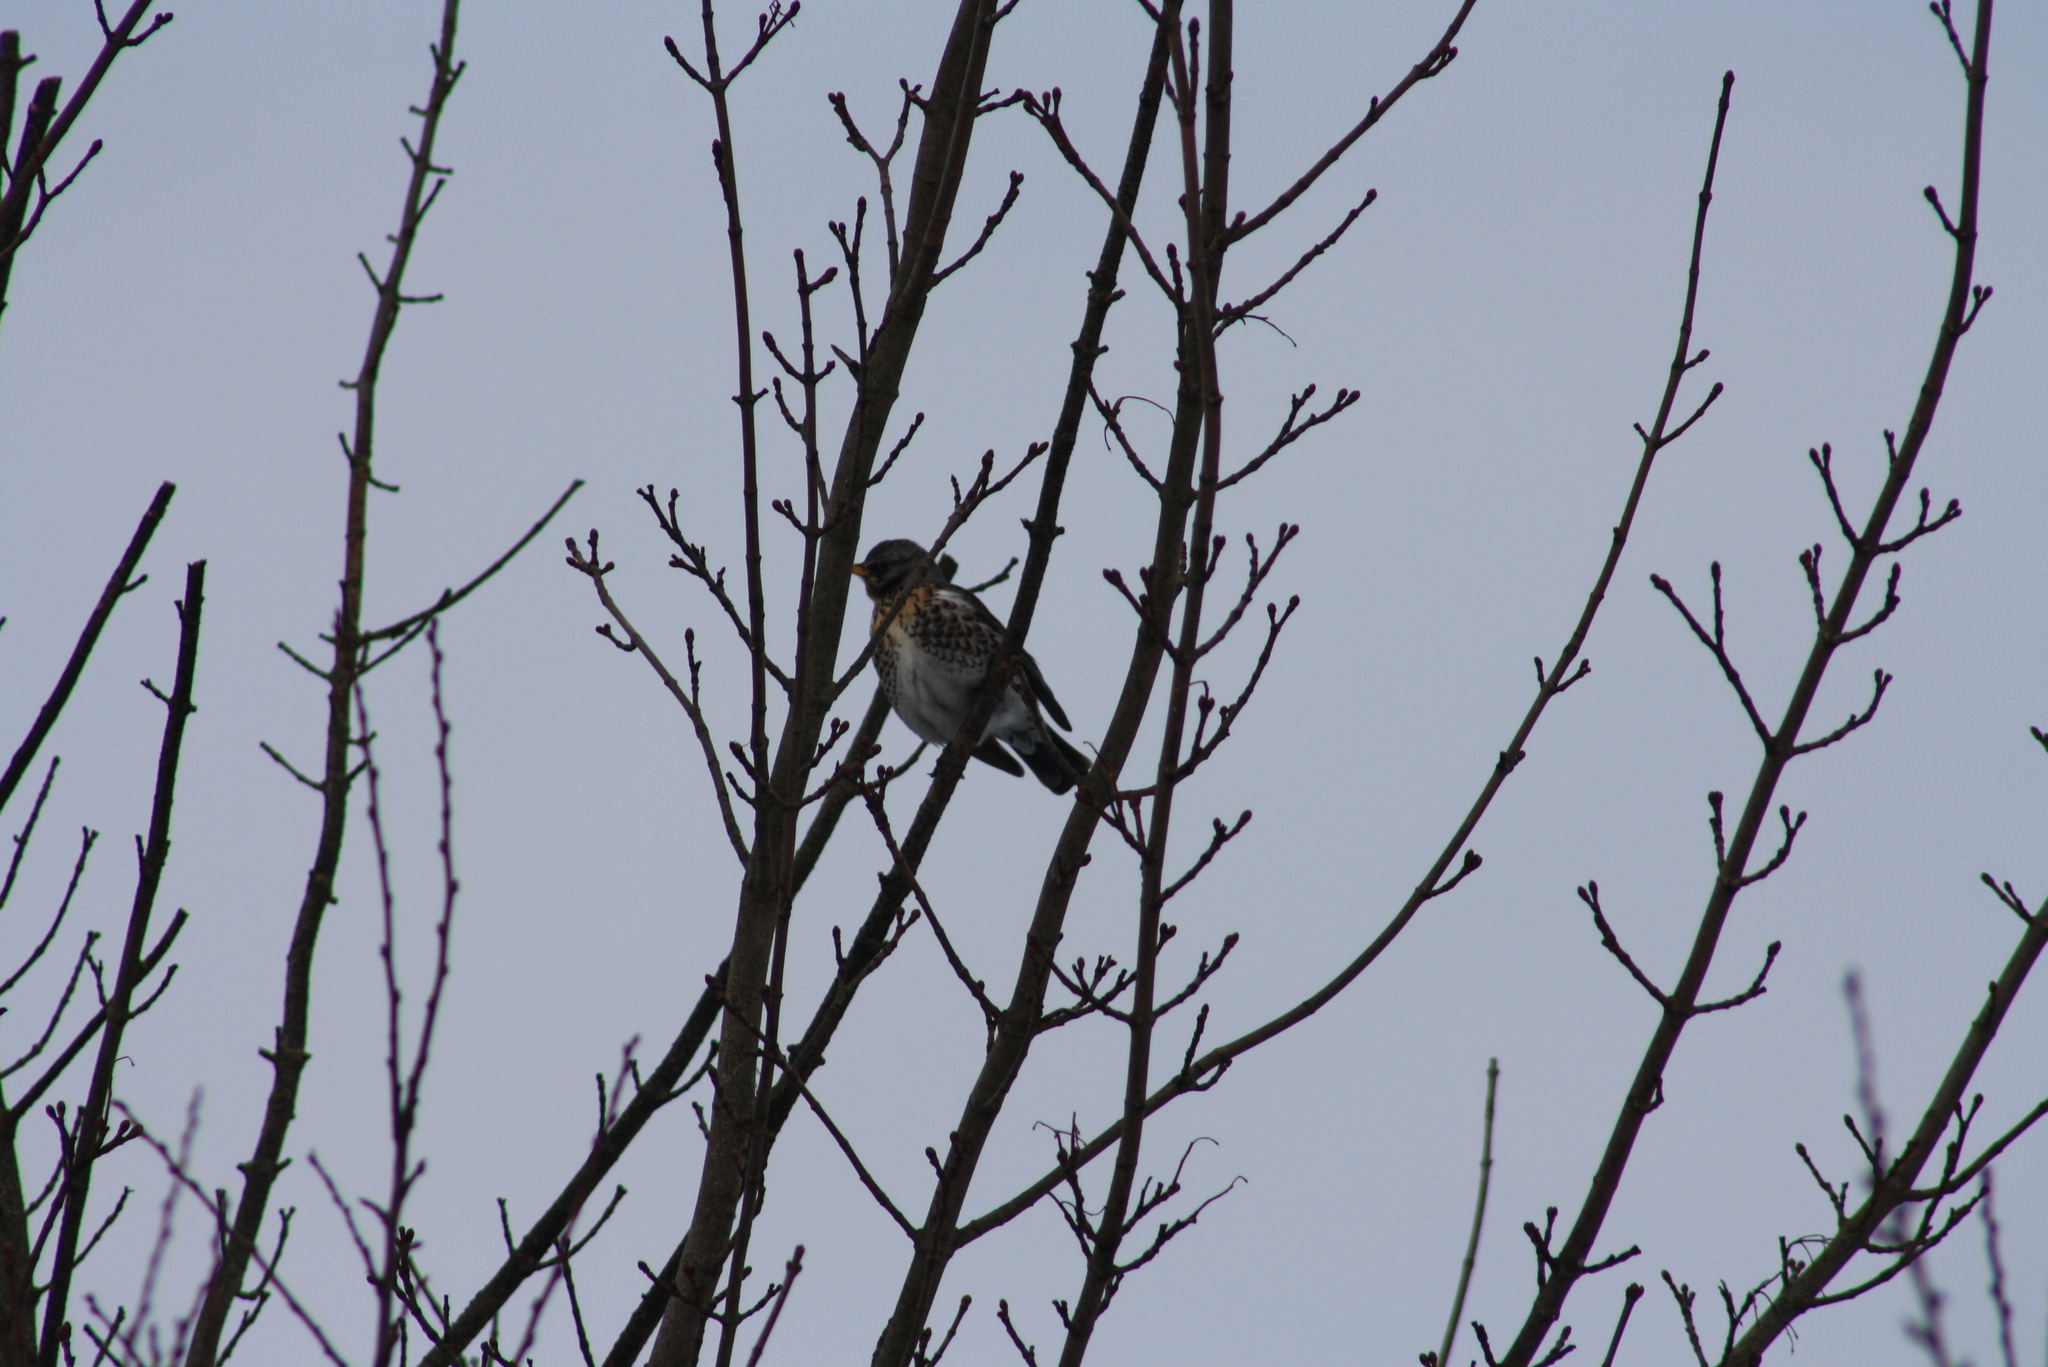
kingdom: Animalia
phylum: Chordata
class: Aves
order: Passeriformes
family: Turdidae
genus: Turdus
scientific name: Turdus pilaris
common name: Fieldfare
